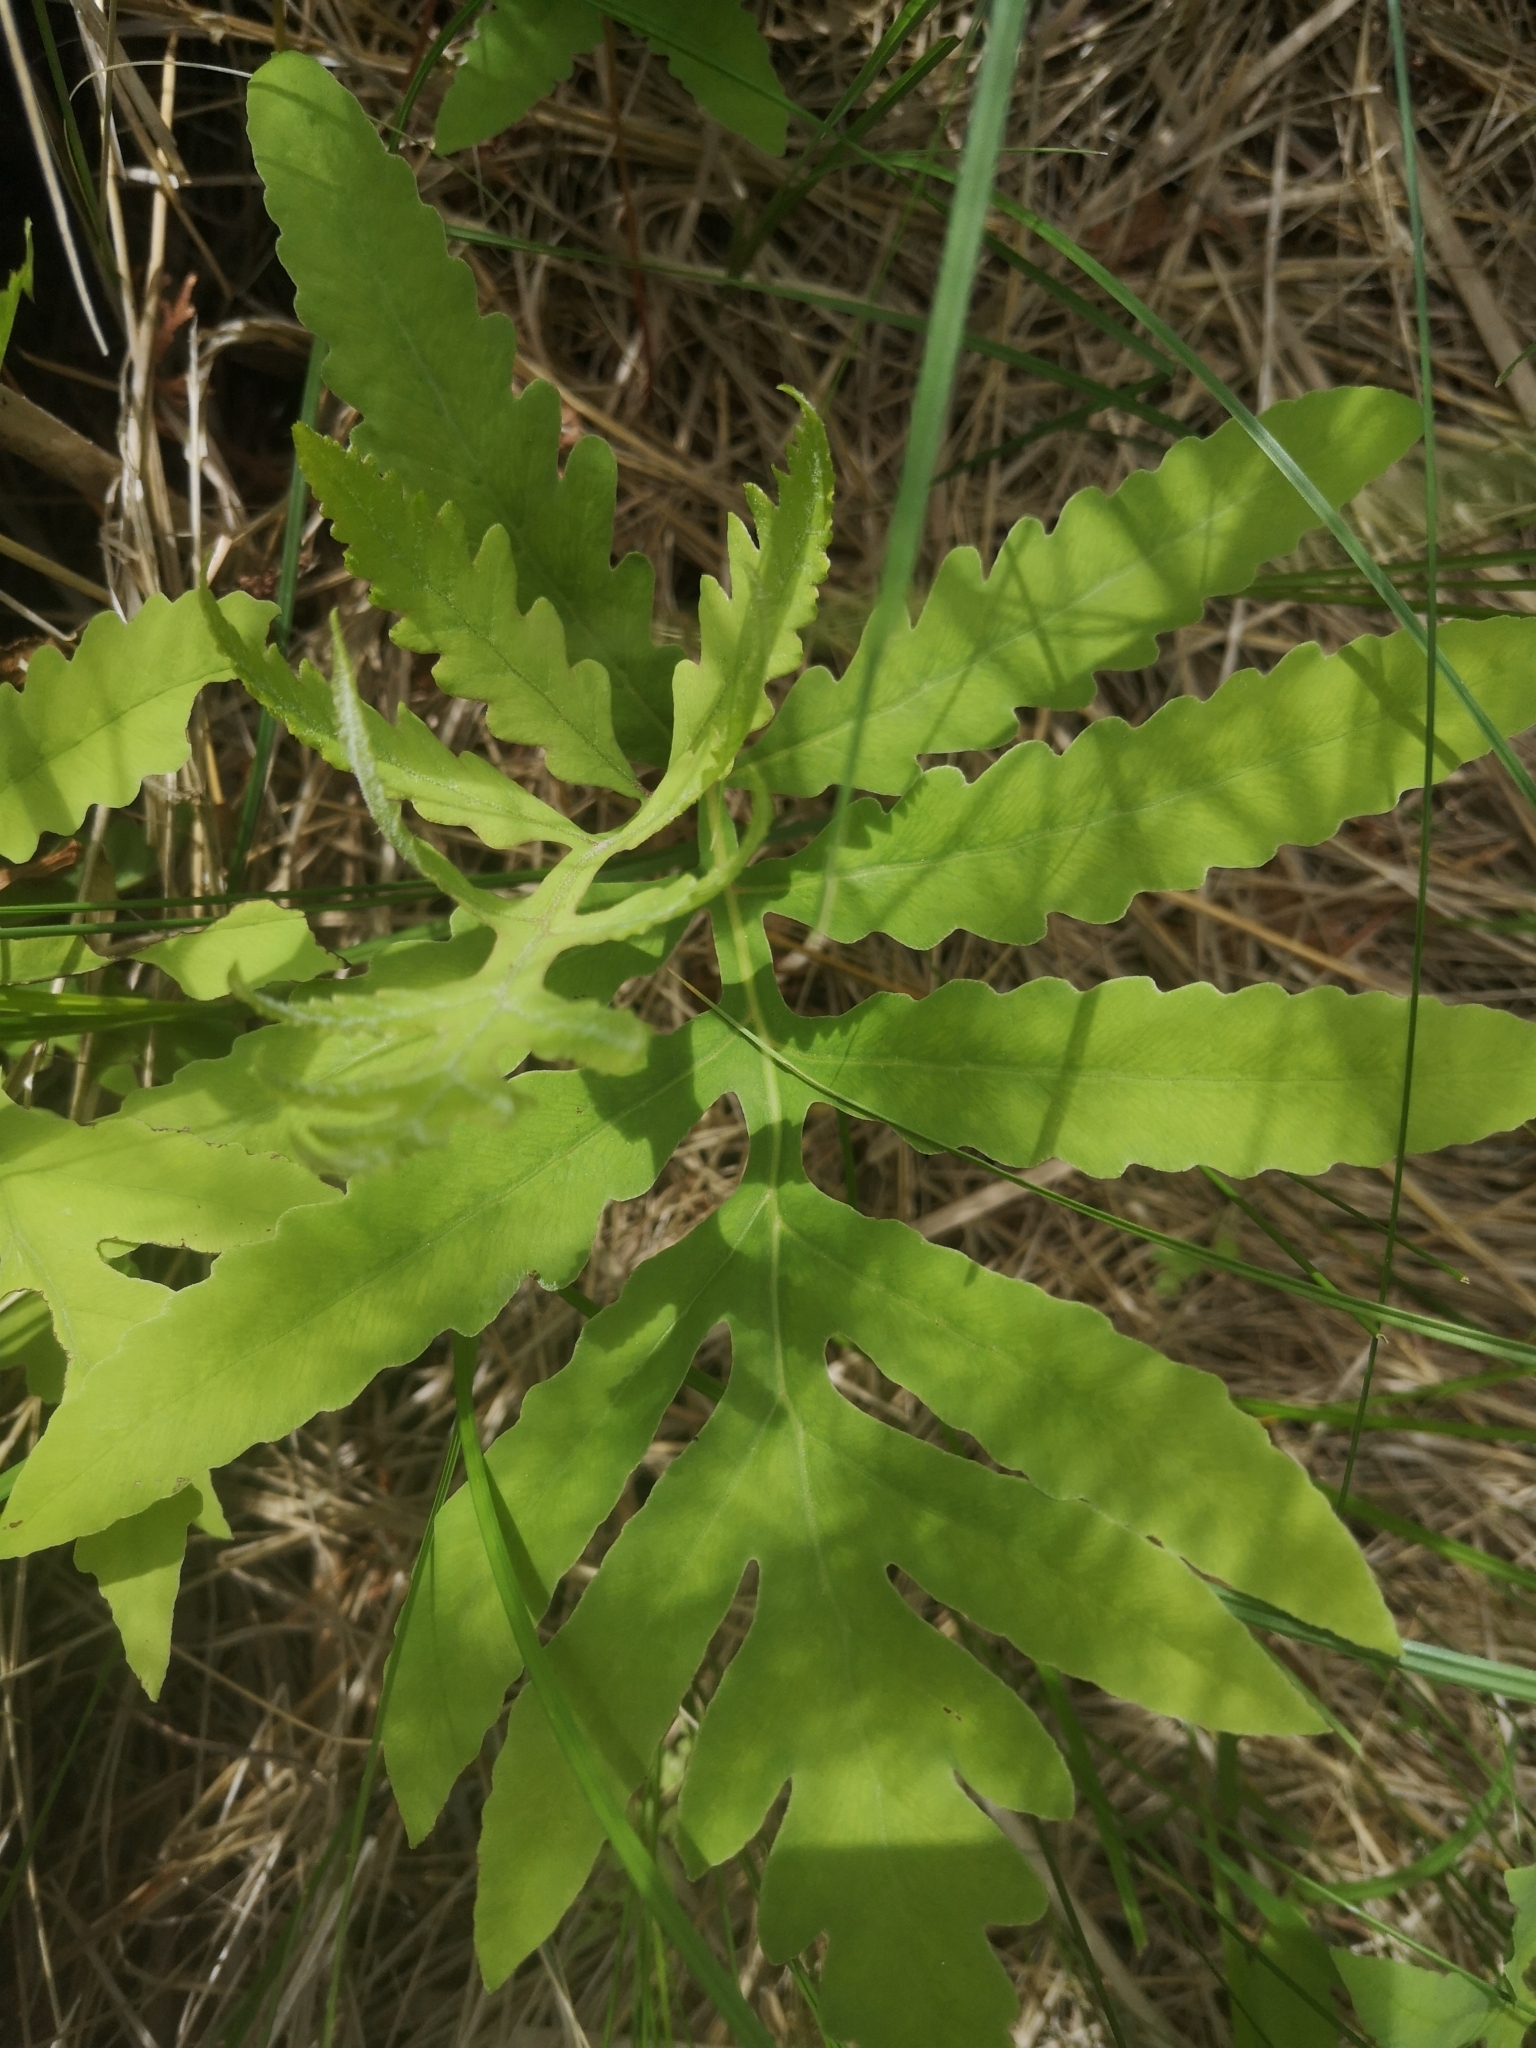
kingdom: Plantae
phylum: Tracheophyta
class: Polypodiopsida
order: Polypodiales
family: Onocleaceae
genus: Onoclea
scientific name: Onoclea sensibilis
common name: Sensitive fern
